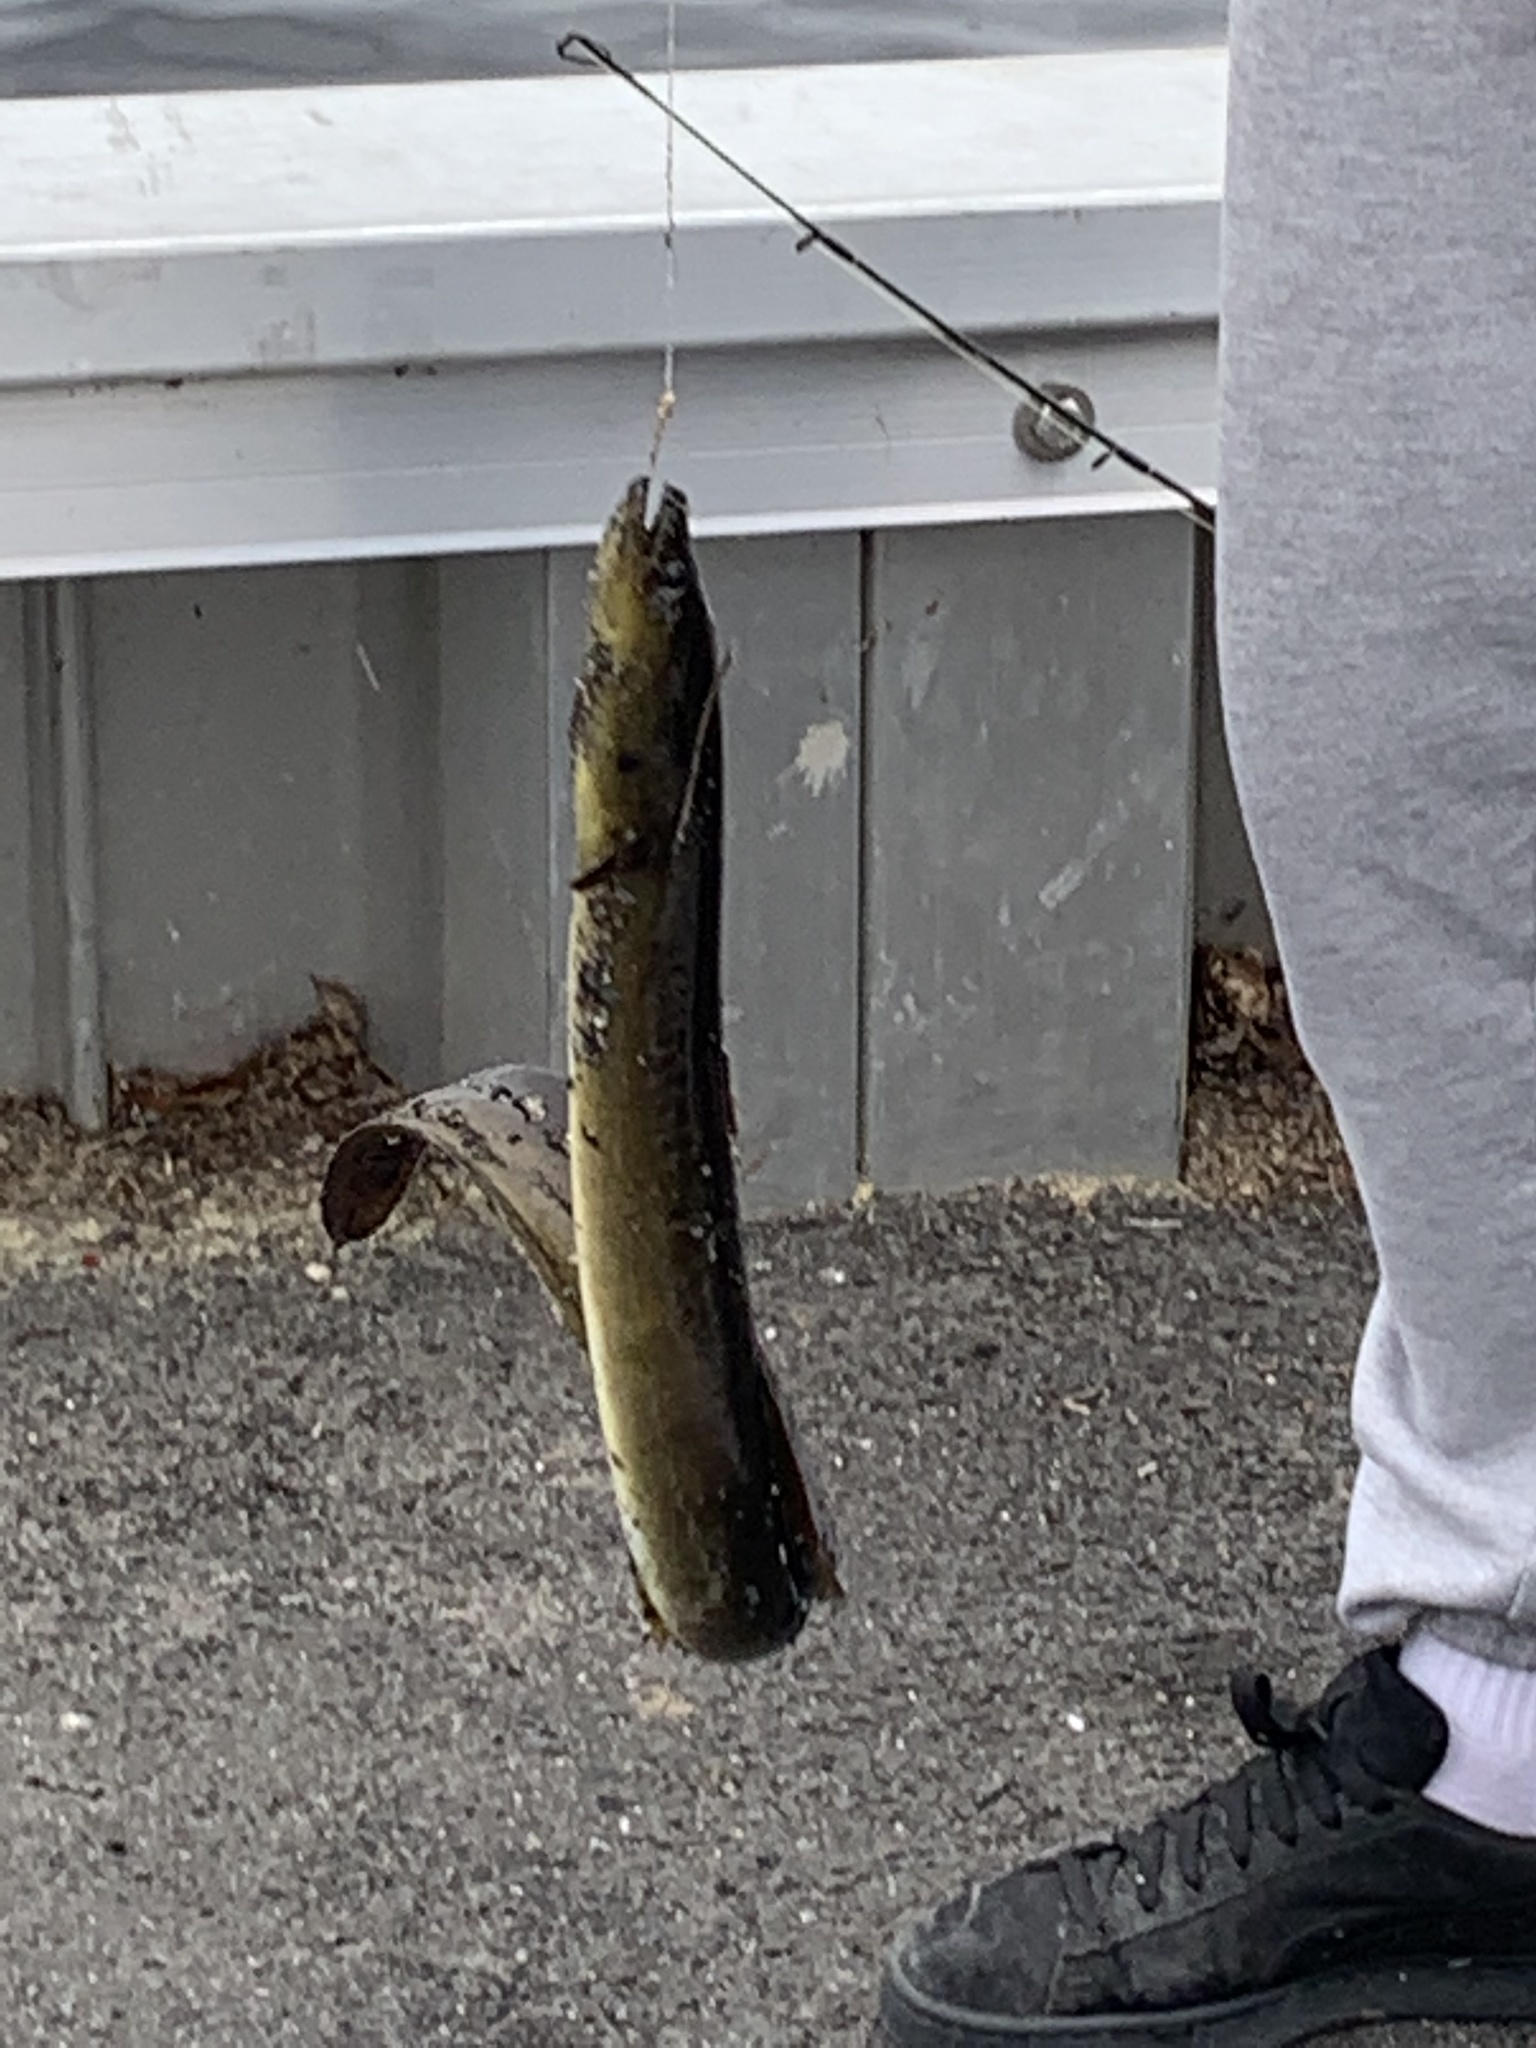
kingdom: Animalia
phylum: Chordata
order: Anguilliformes
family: Anguillidae
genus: Anguilla
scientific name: Anguilla rostrata
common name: American eel
